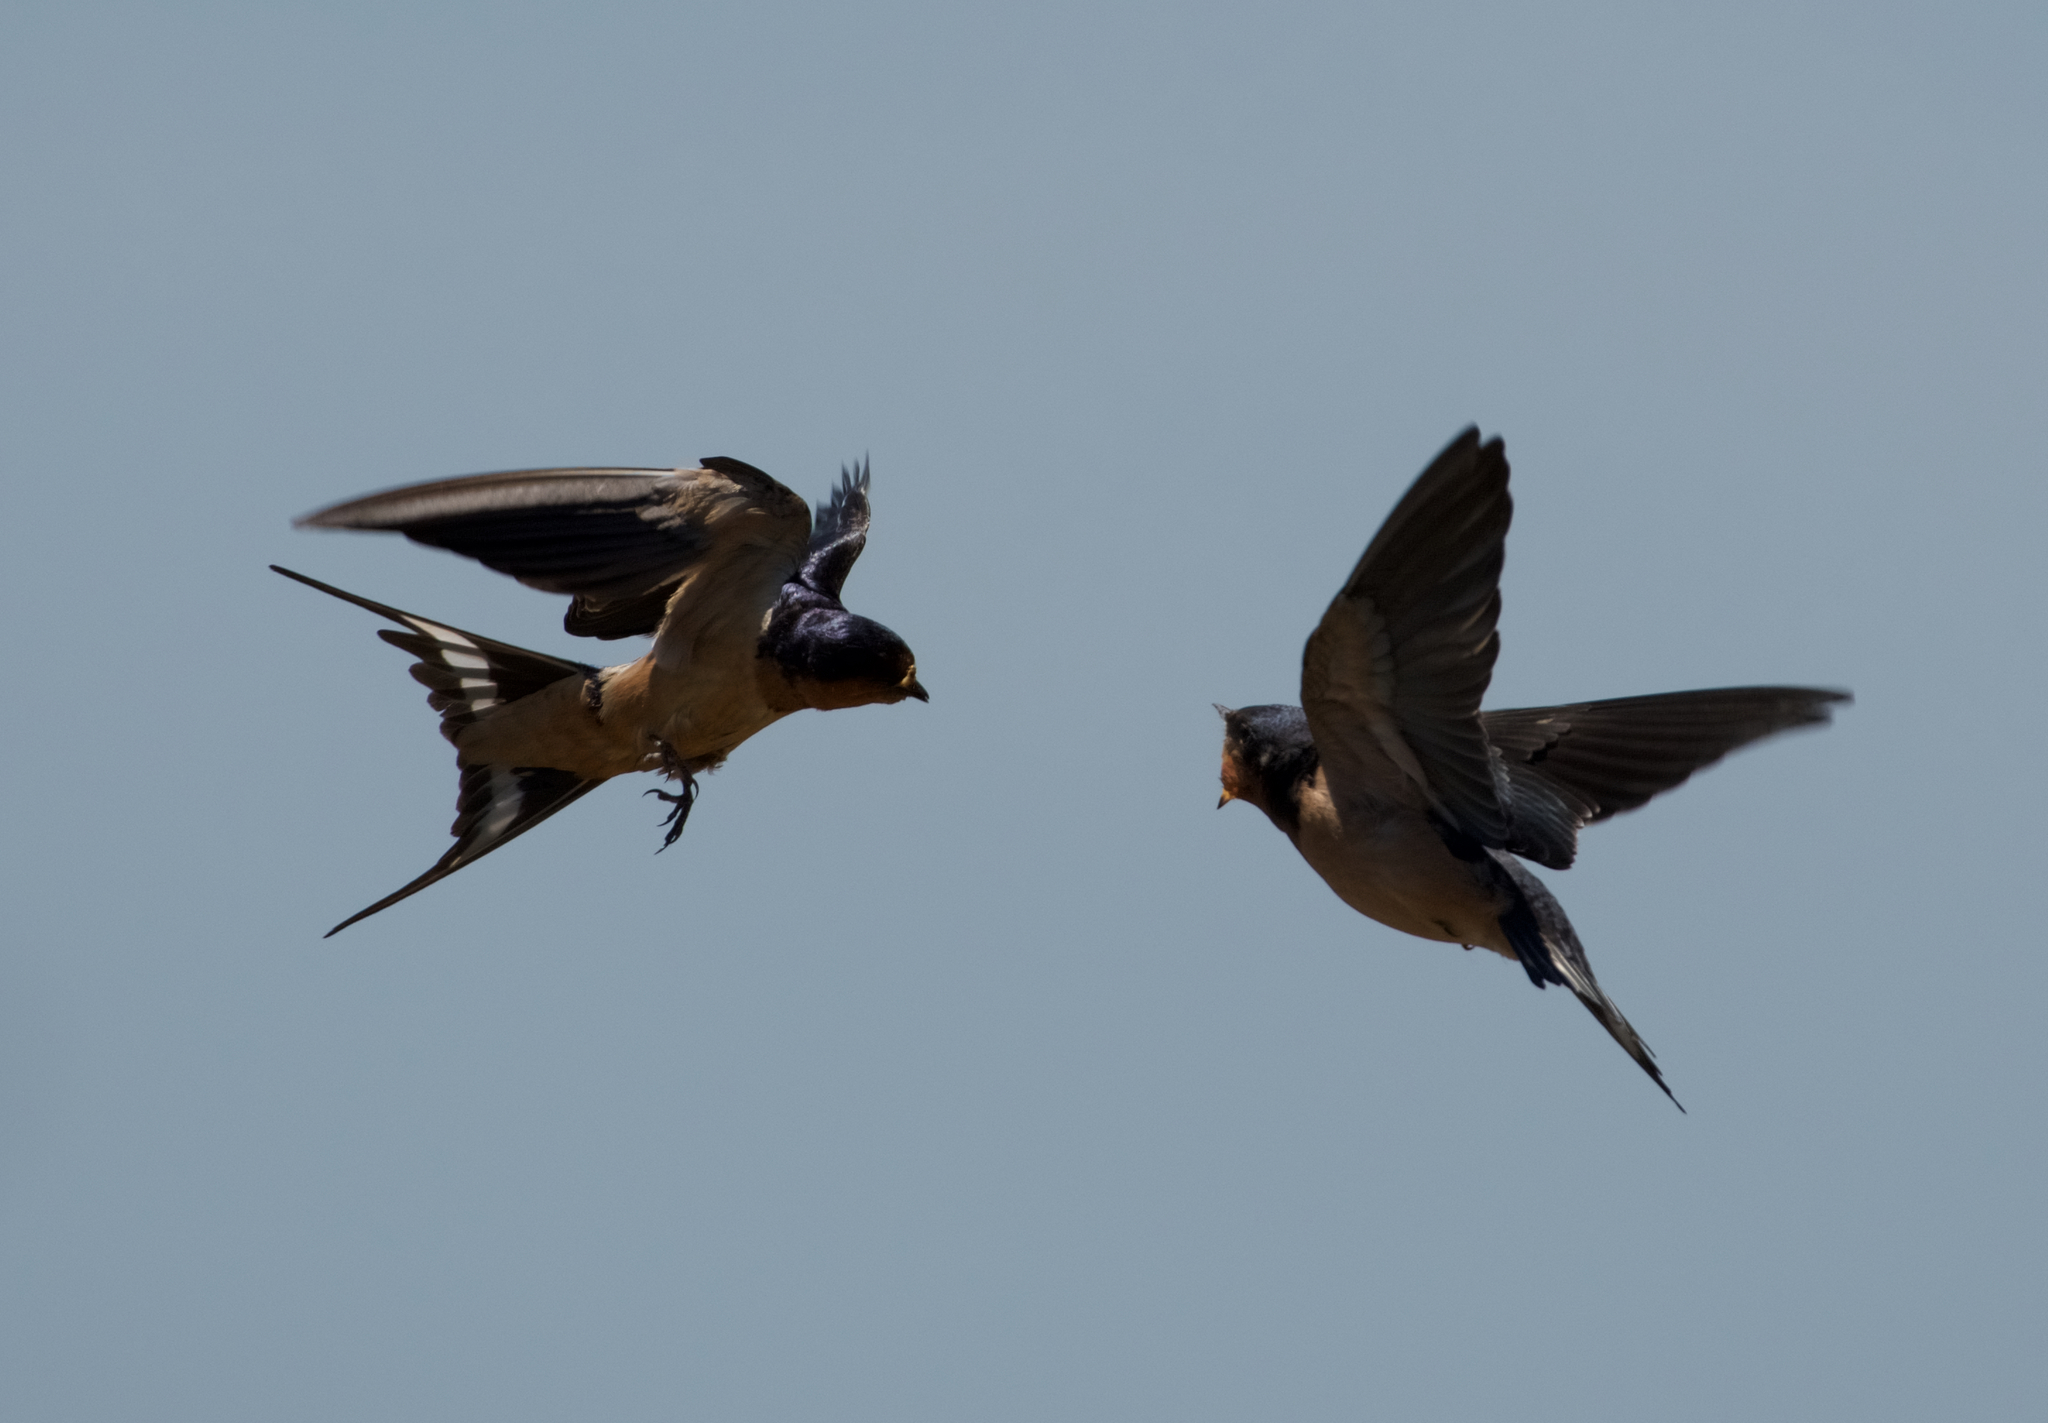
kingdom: Animalia
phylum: Chordata
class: Aves
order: Passeriformes
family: Hirundinidae
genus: Hirundo
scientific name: Hirundo rustica
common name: Barn swallow
